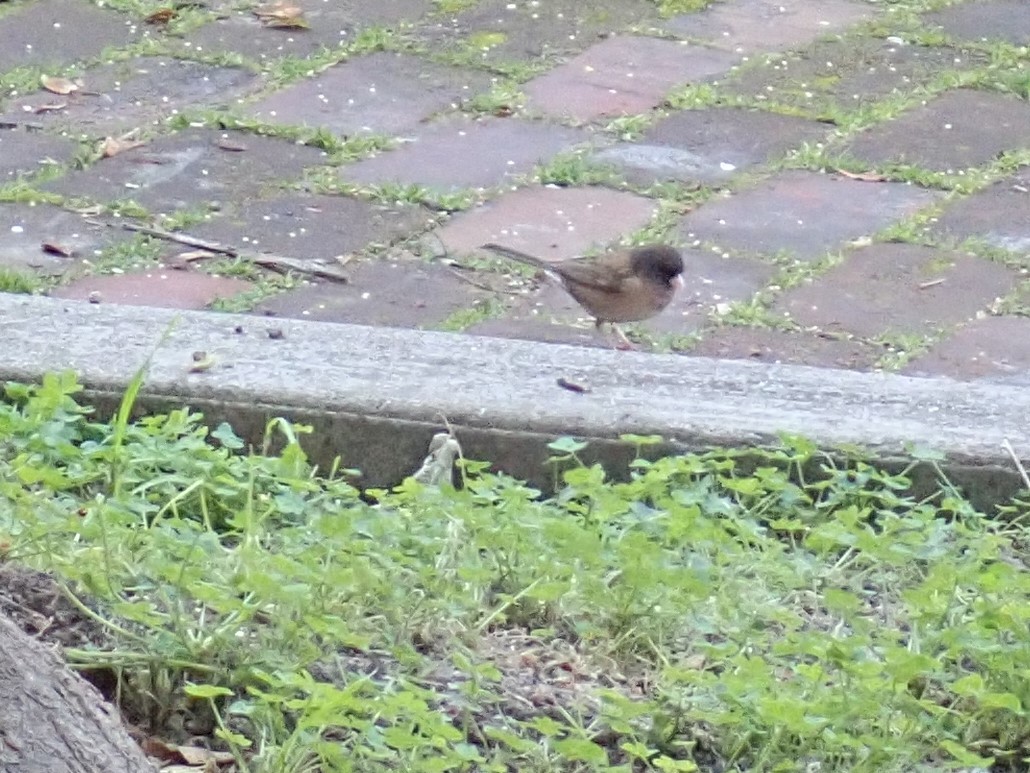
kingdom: Animalia
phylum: Chordata
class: Aves
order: Passeriformes
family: Passerellidae
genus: Junco
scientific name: Junco hyemalis
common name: Dark-eyed junco
